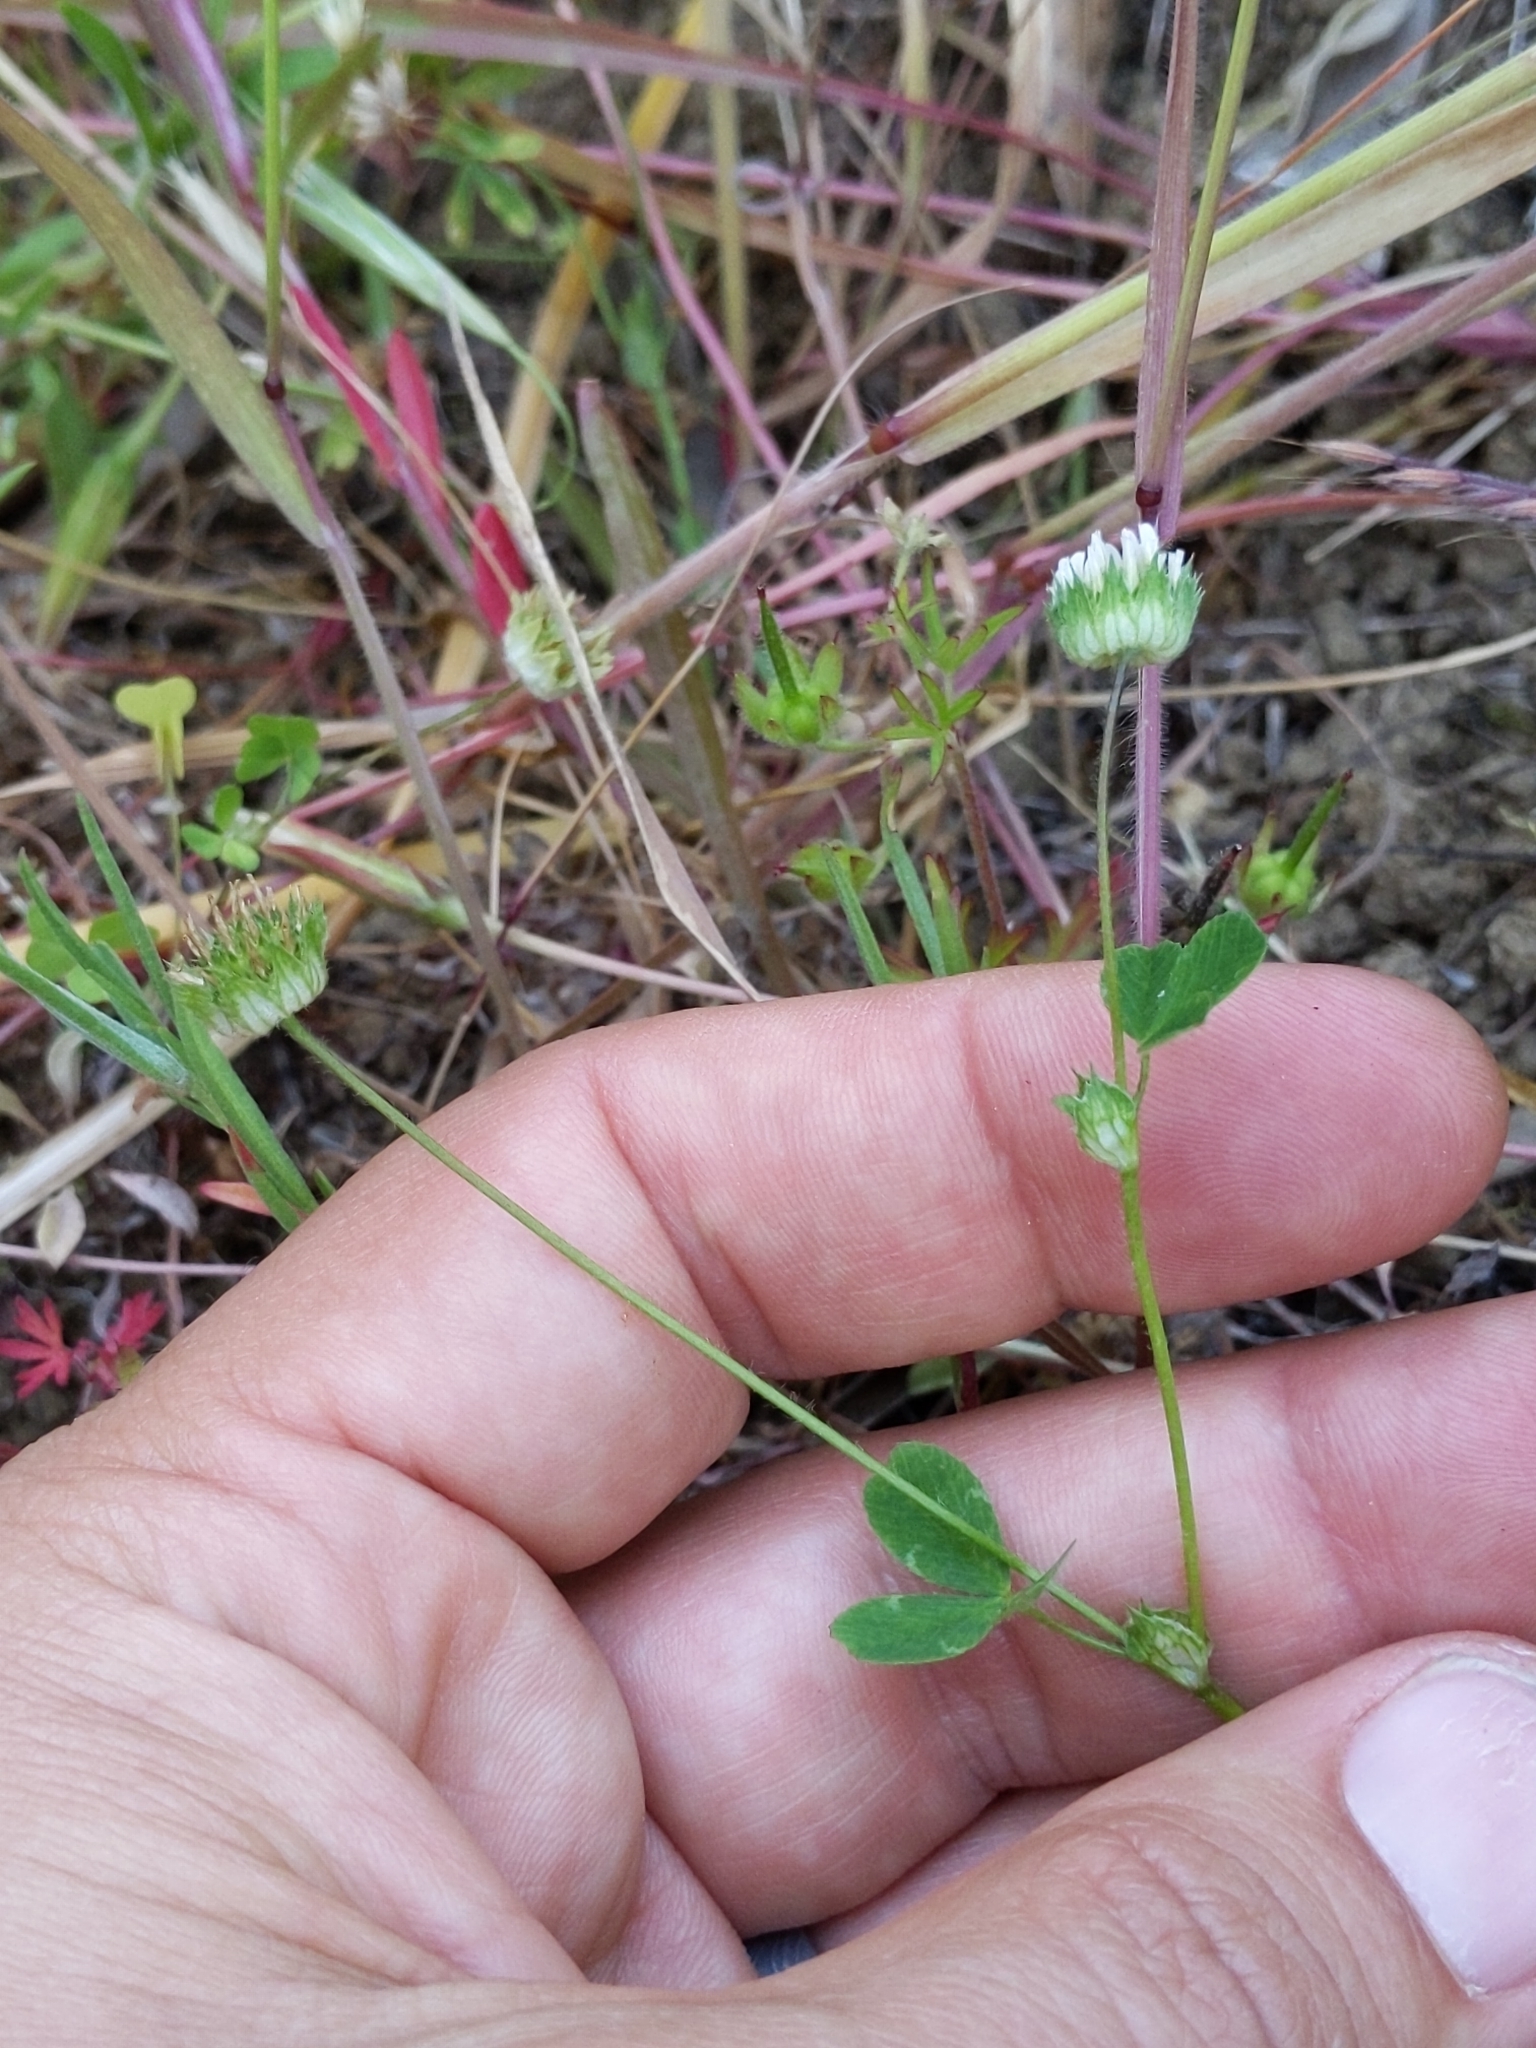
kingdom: Plantae
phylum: Tracheophyta
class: Magnoliopsida
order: Fabales
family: Fabaceae
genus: Trifolium
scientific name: Trifolium microdon
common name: Thimble clover
